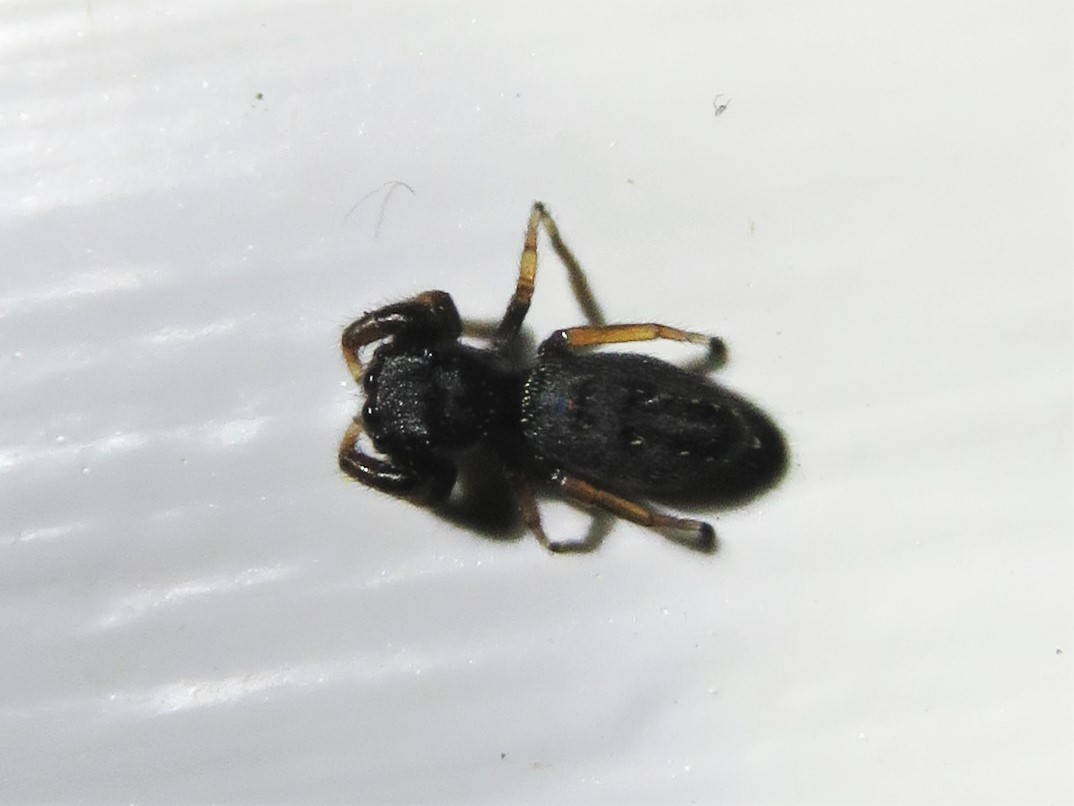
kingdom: Animalia
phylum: Arthropoda
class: Arachnida
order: Araneae
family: Salticidae
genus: Metacyrba
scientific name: Metacyrba taeniola
